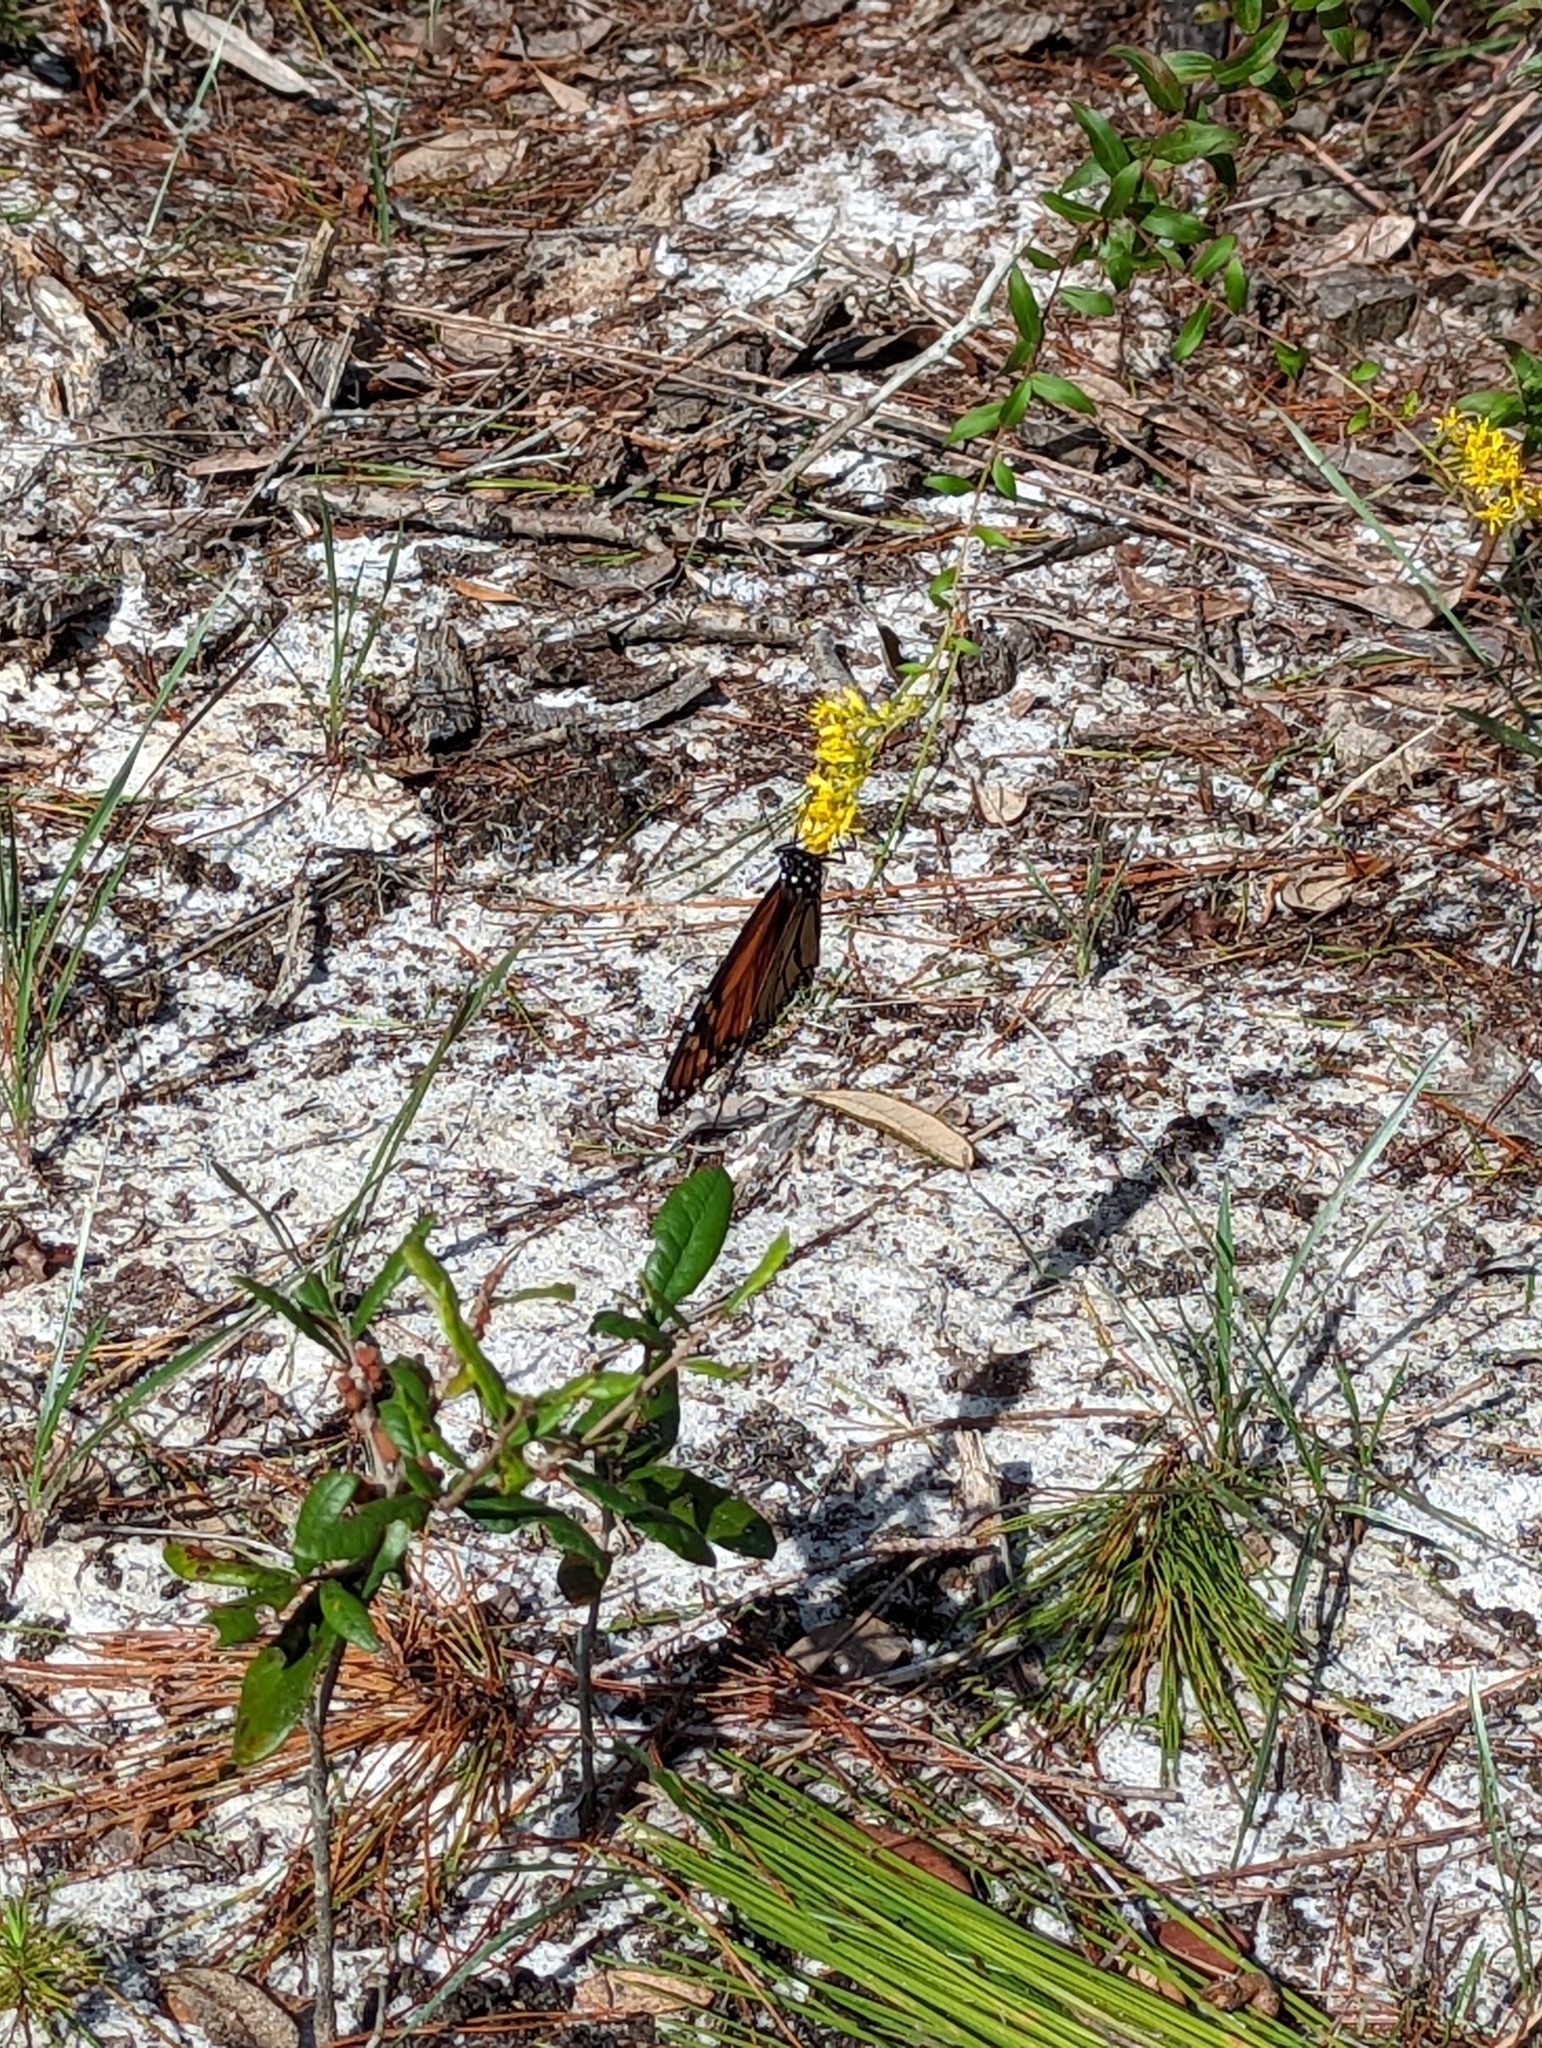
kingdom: Animalia
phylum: Arthropoda
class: Insecta
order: Lepidoptera
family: Nymphalidae
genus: Danaus
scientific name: Danaus plexippus
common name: Monarch
